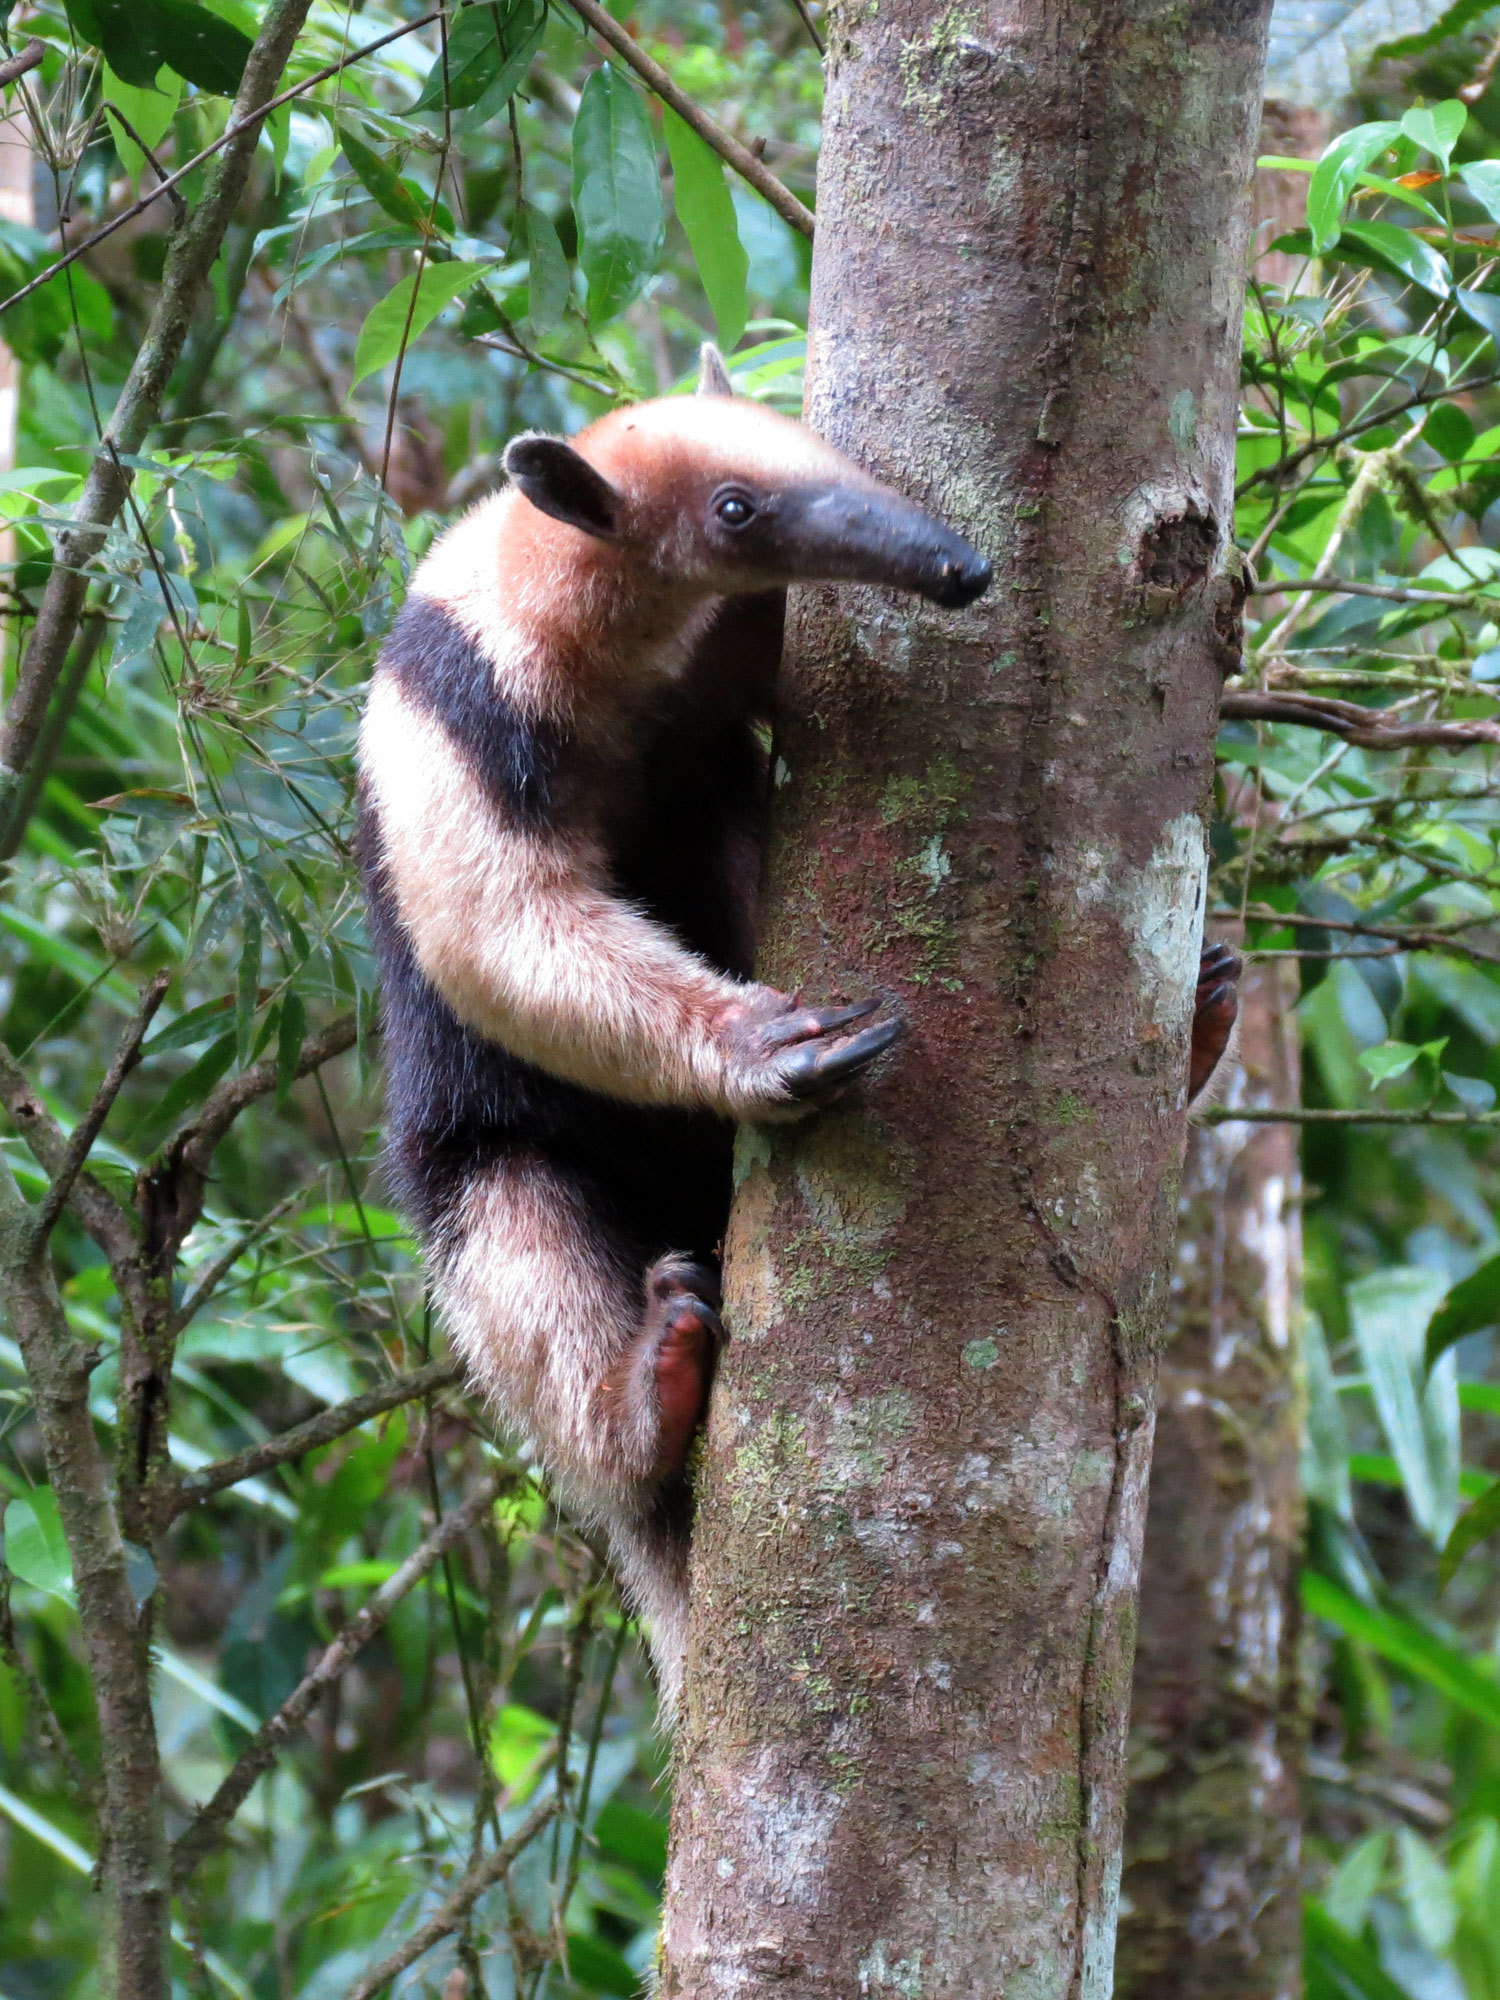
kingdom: Animalia
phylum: Chordata
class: Mammalia
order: Pilosa
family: Myrmecophagidae
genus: Tamandua
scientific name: Tamandua mexicana
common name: Northern tamandua
